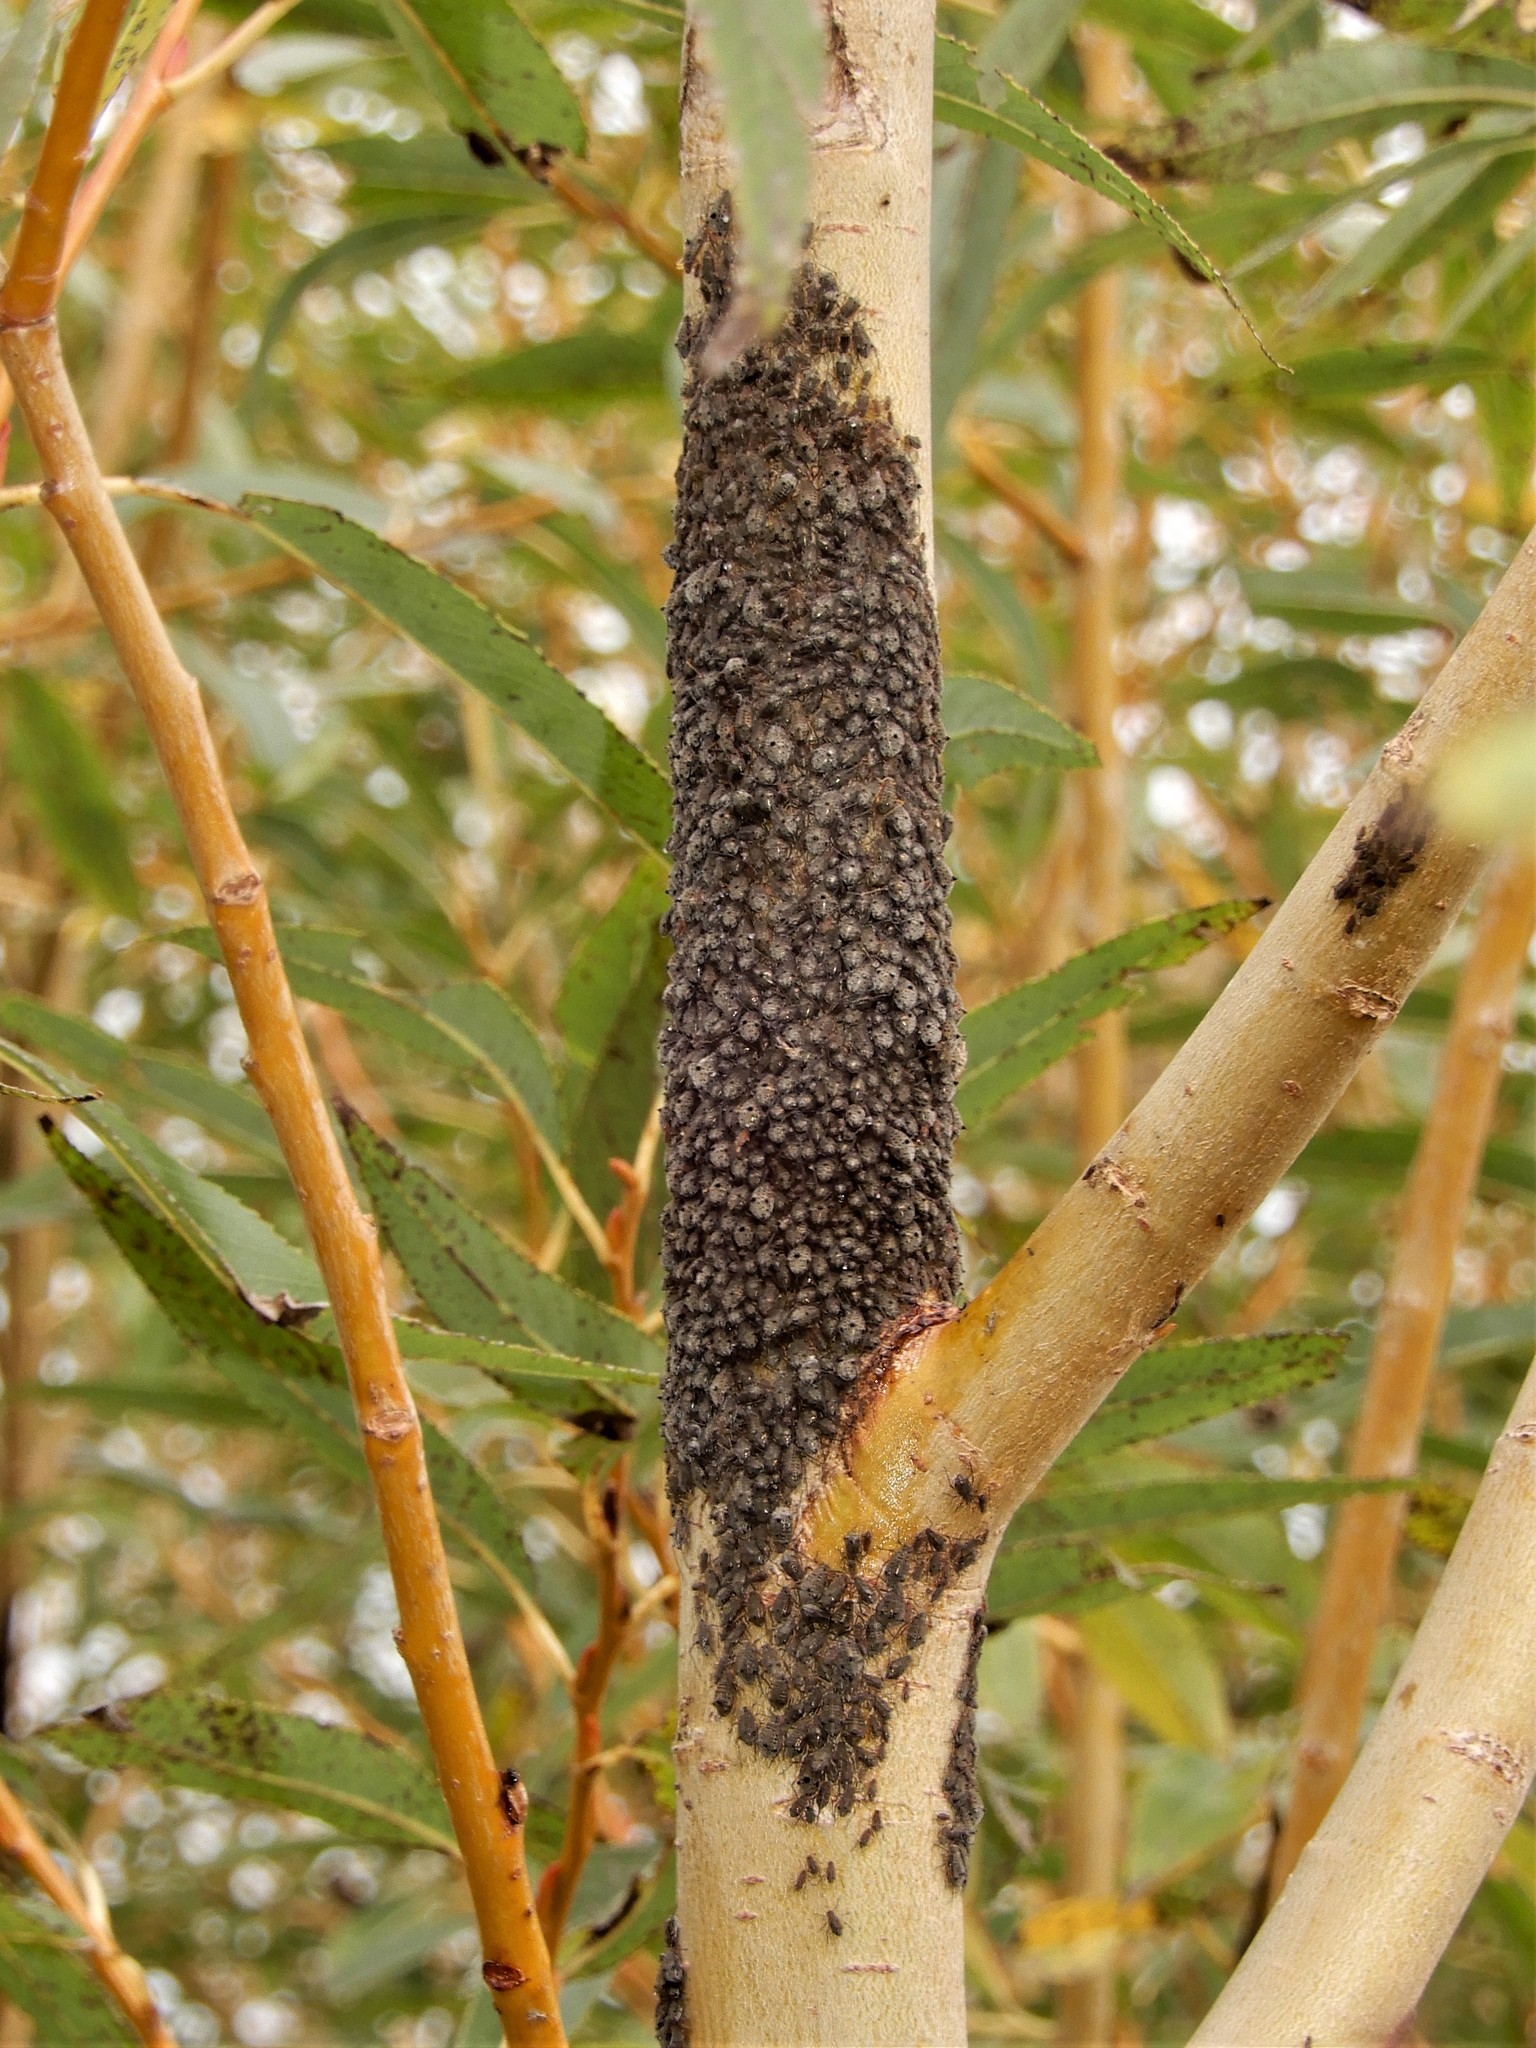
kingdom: Animalia
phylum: Arthropoda
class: Insecta
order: Hemiptera
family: Aphididae
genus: Tuberolachnus
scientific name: Tuberolachnus salignus
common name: Giant willow aphid
